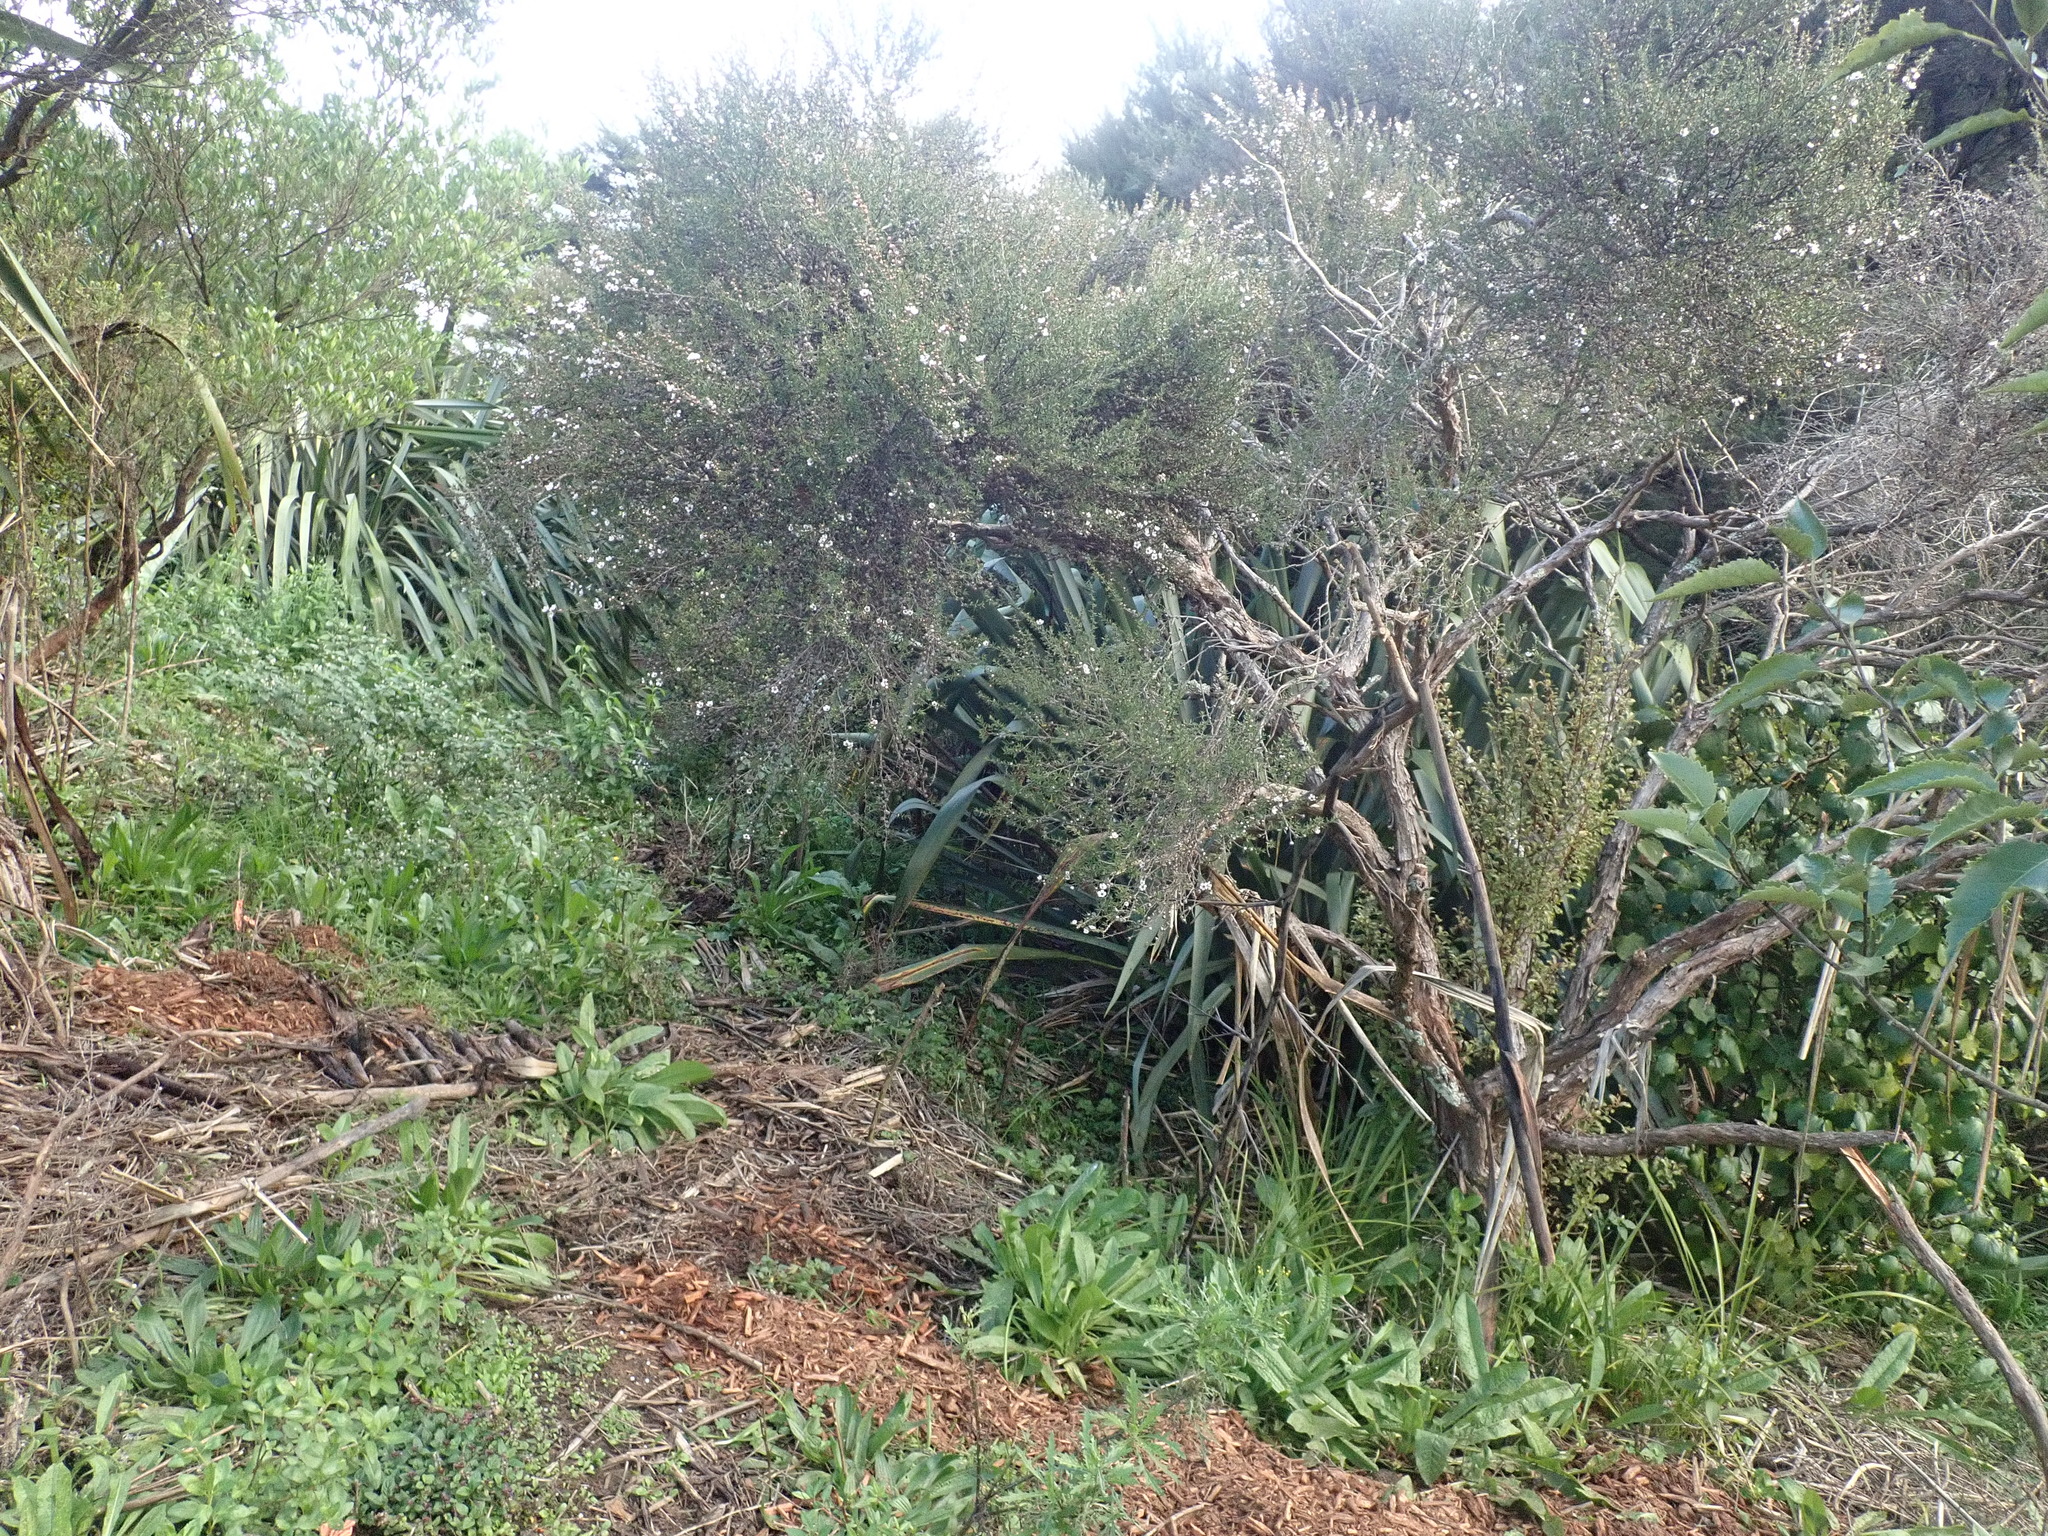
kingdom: Plantae
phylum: Tracheophyta
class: Magnoliopsida
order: Myrtales
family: Myrtaceae
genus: Leptospermum
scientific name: Leptospermum scoparium
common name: Broom tea-tree
